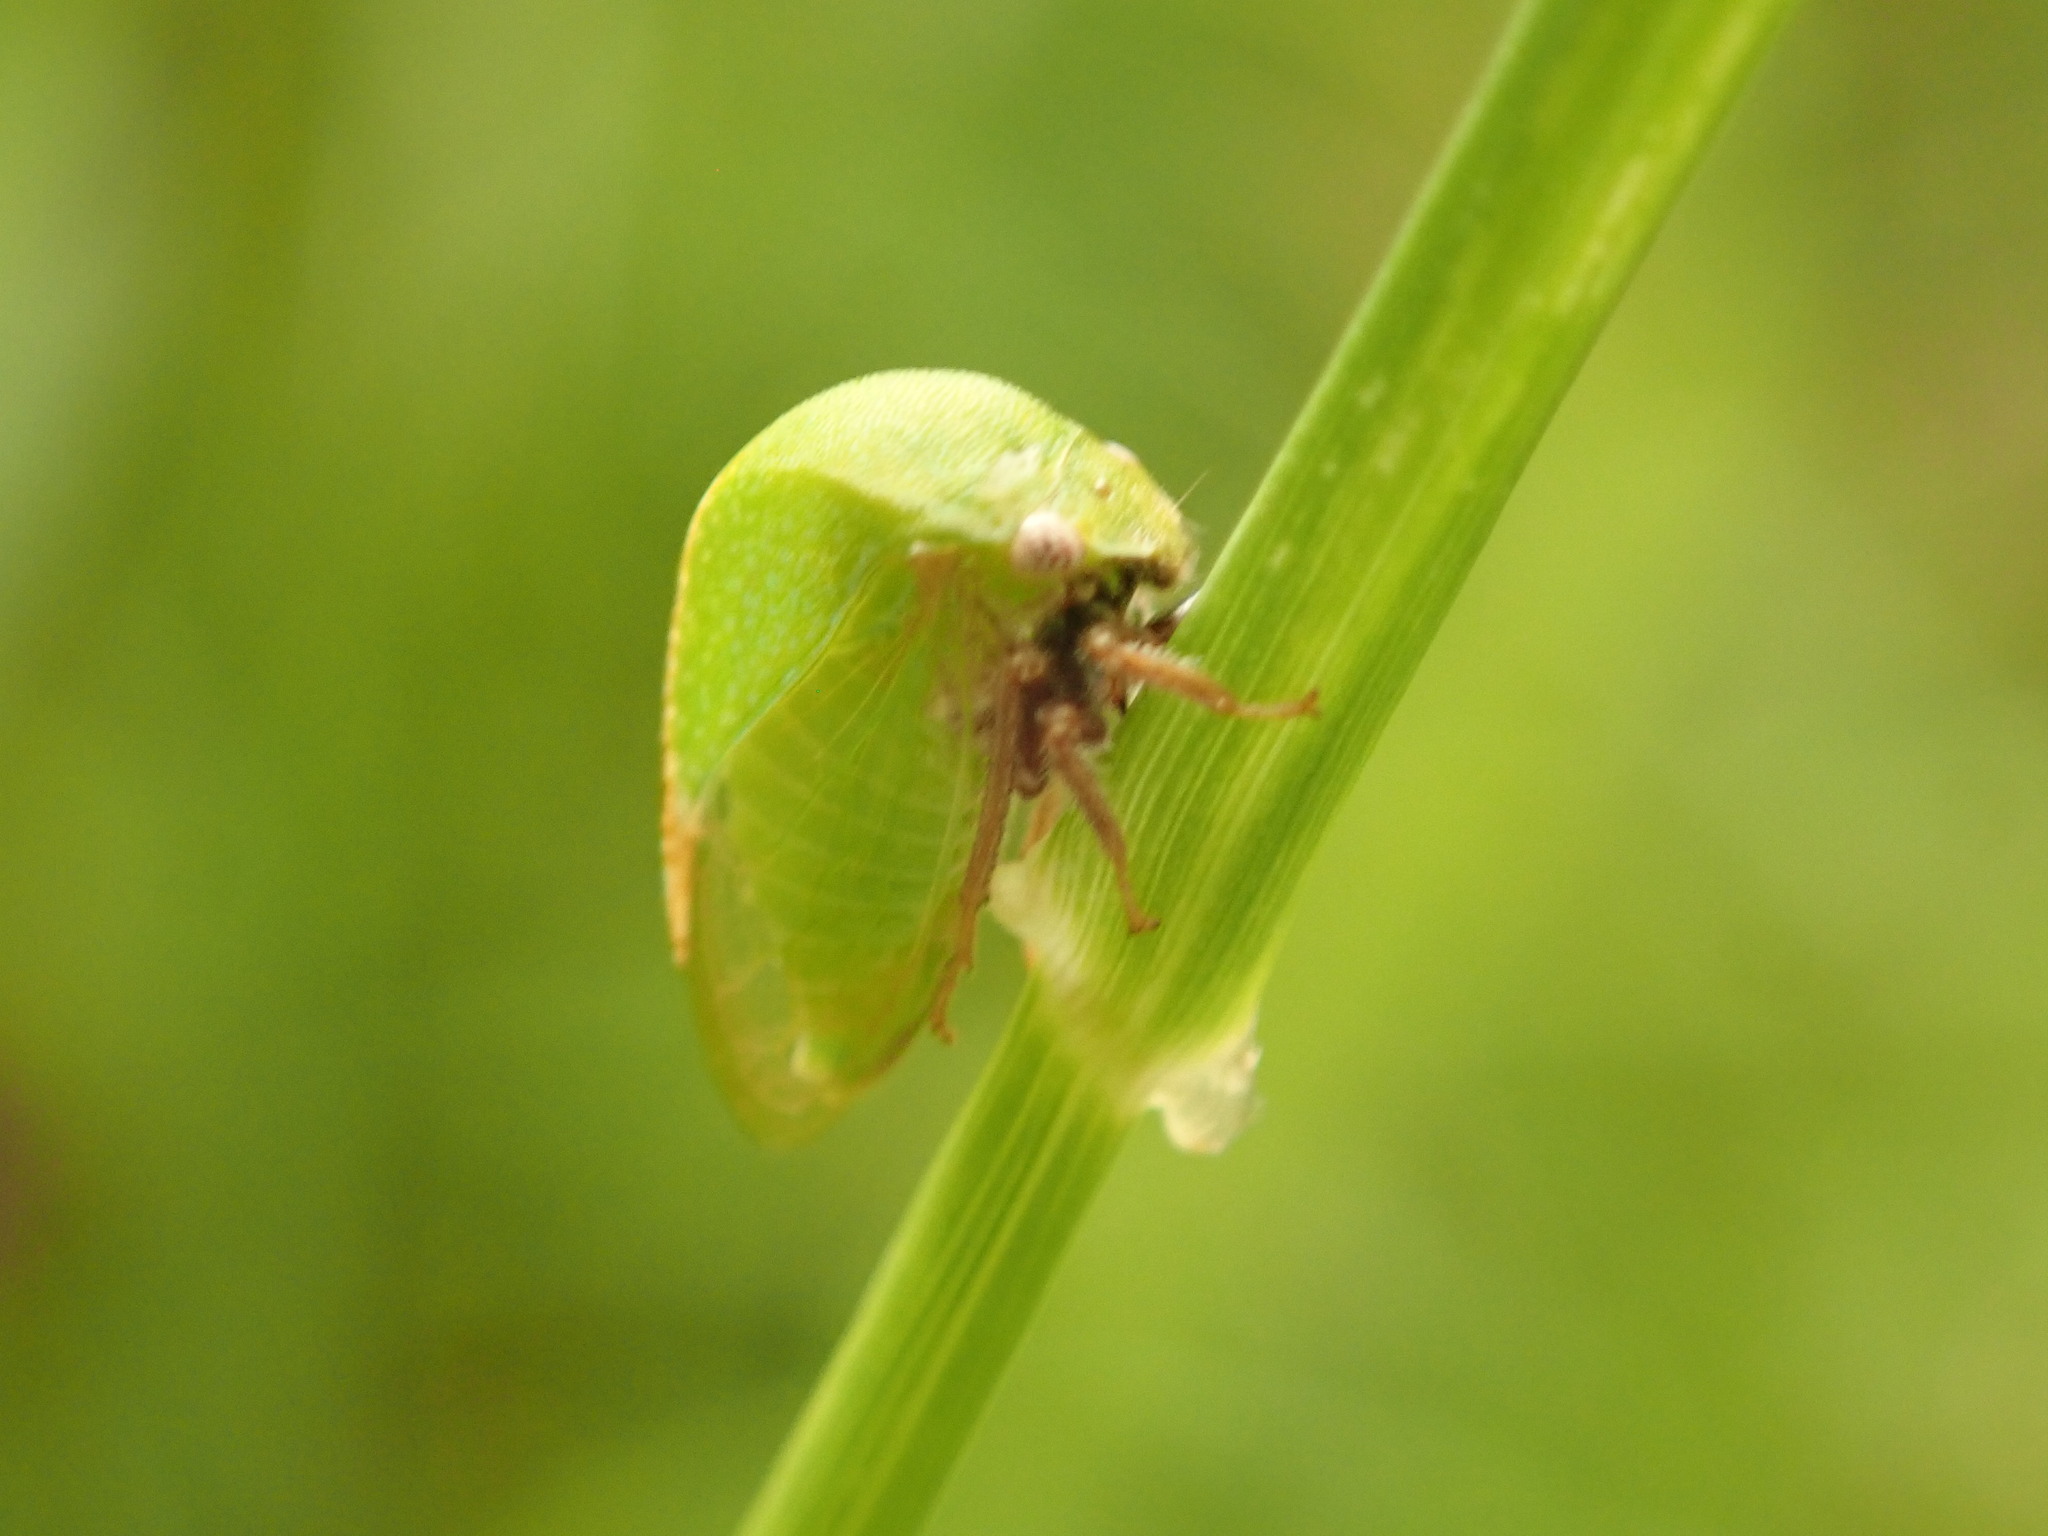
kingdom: Animalia
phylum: Arthropoda
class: Insecta
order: Hemiptera
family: Membracidae
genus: Stictocephala
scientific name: Stictocephala lutea
